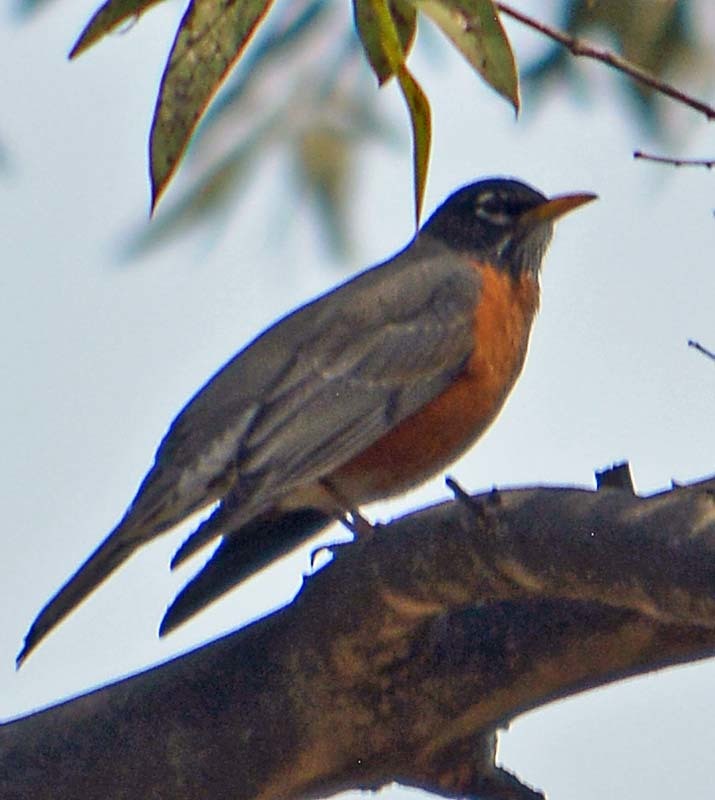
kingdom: Animalia
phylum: Chordata
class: Aves
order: Passeriformes
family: Turdidae
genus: Turdus
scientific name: Turdus migratorius
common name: American robin
